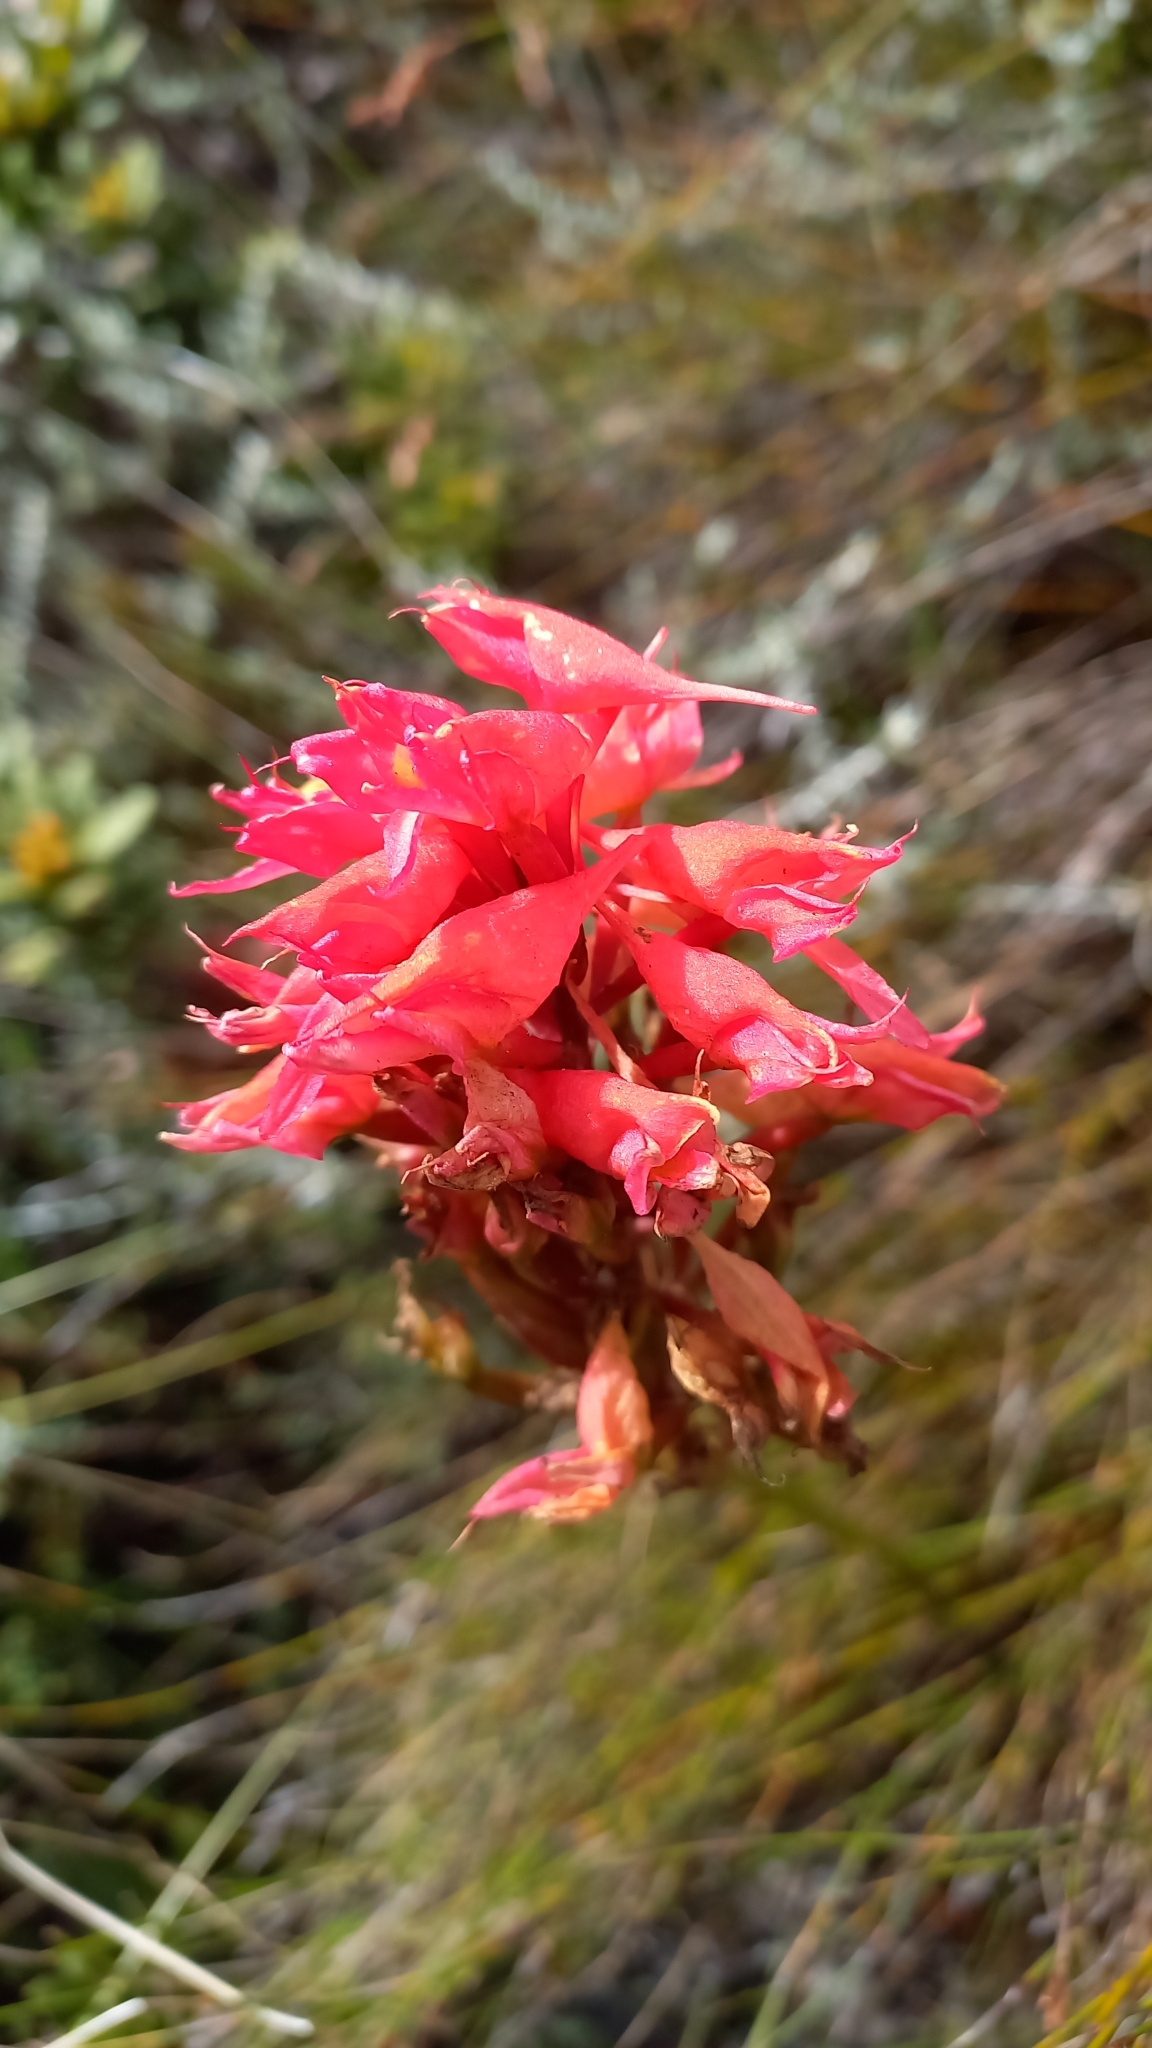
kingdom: Plantae
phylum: Tracheophyta
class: Liliopsida
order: Asparagales
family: Orchidaceae
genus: Disa
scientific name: Disa ferruginea
